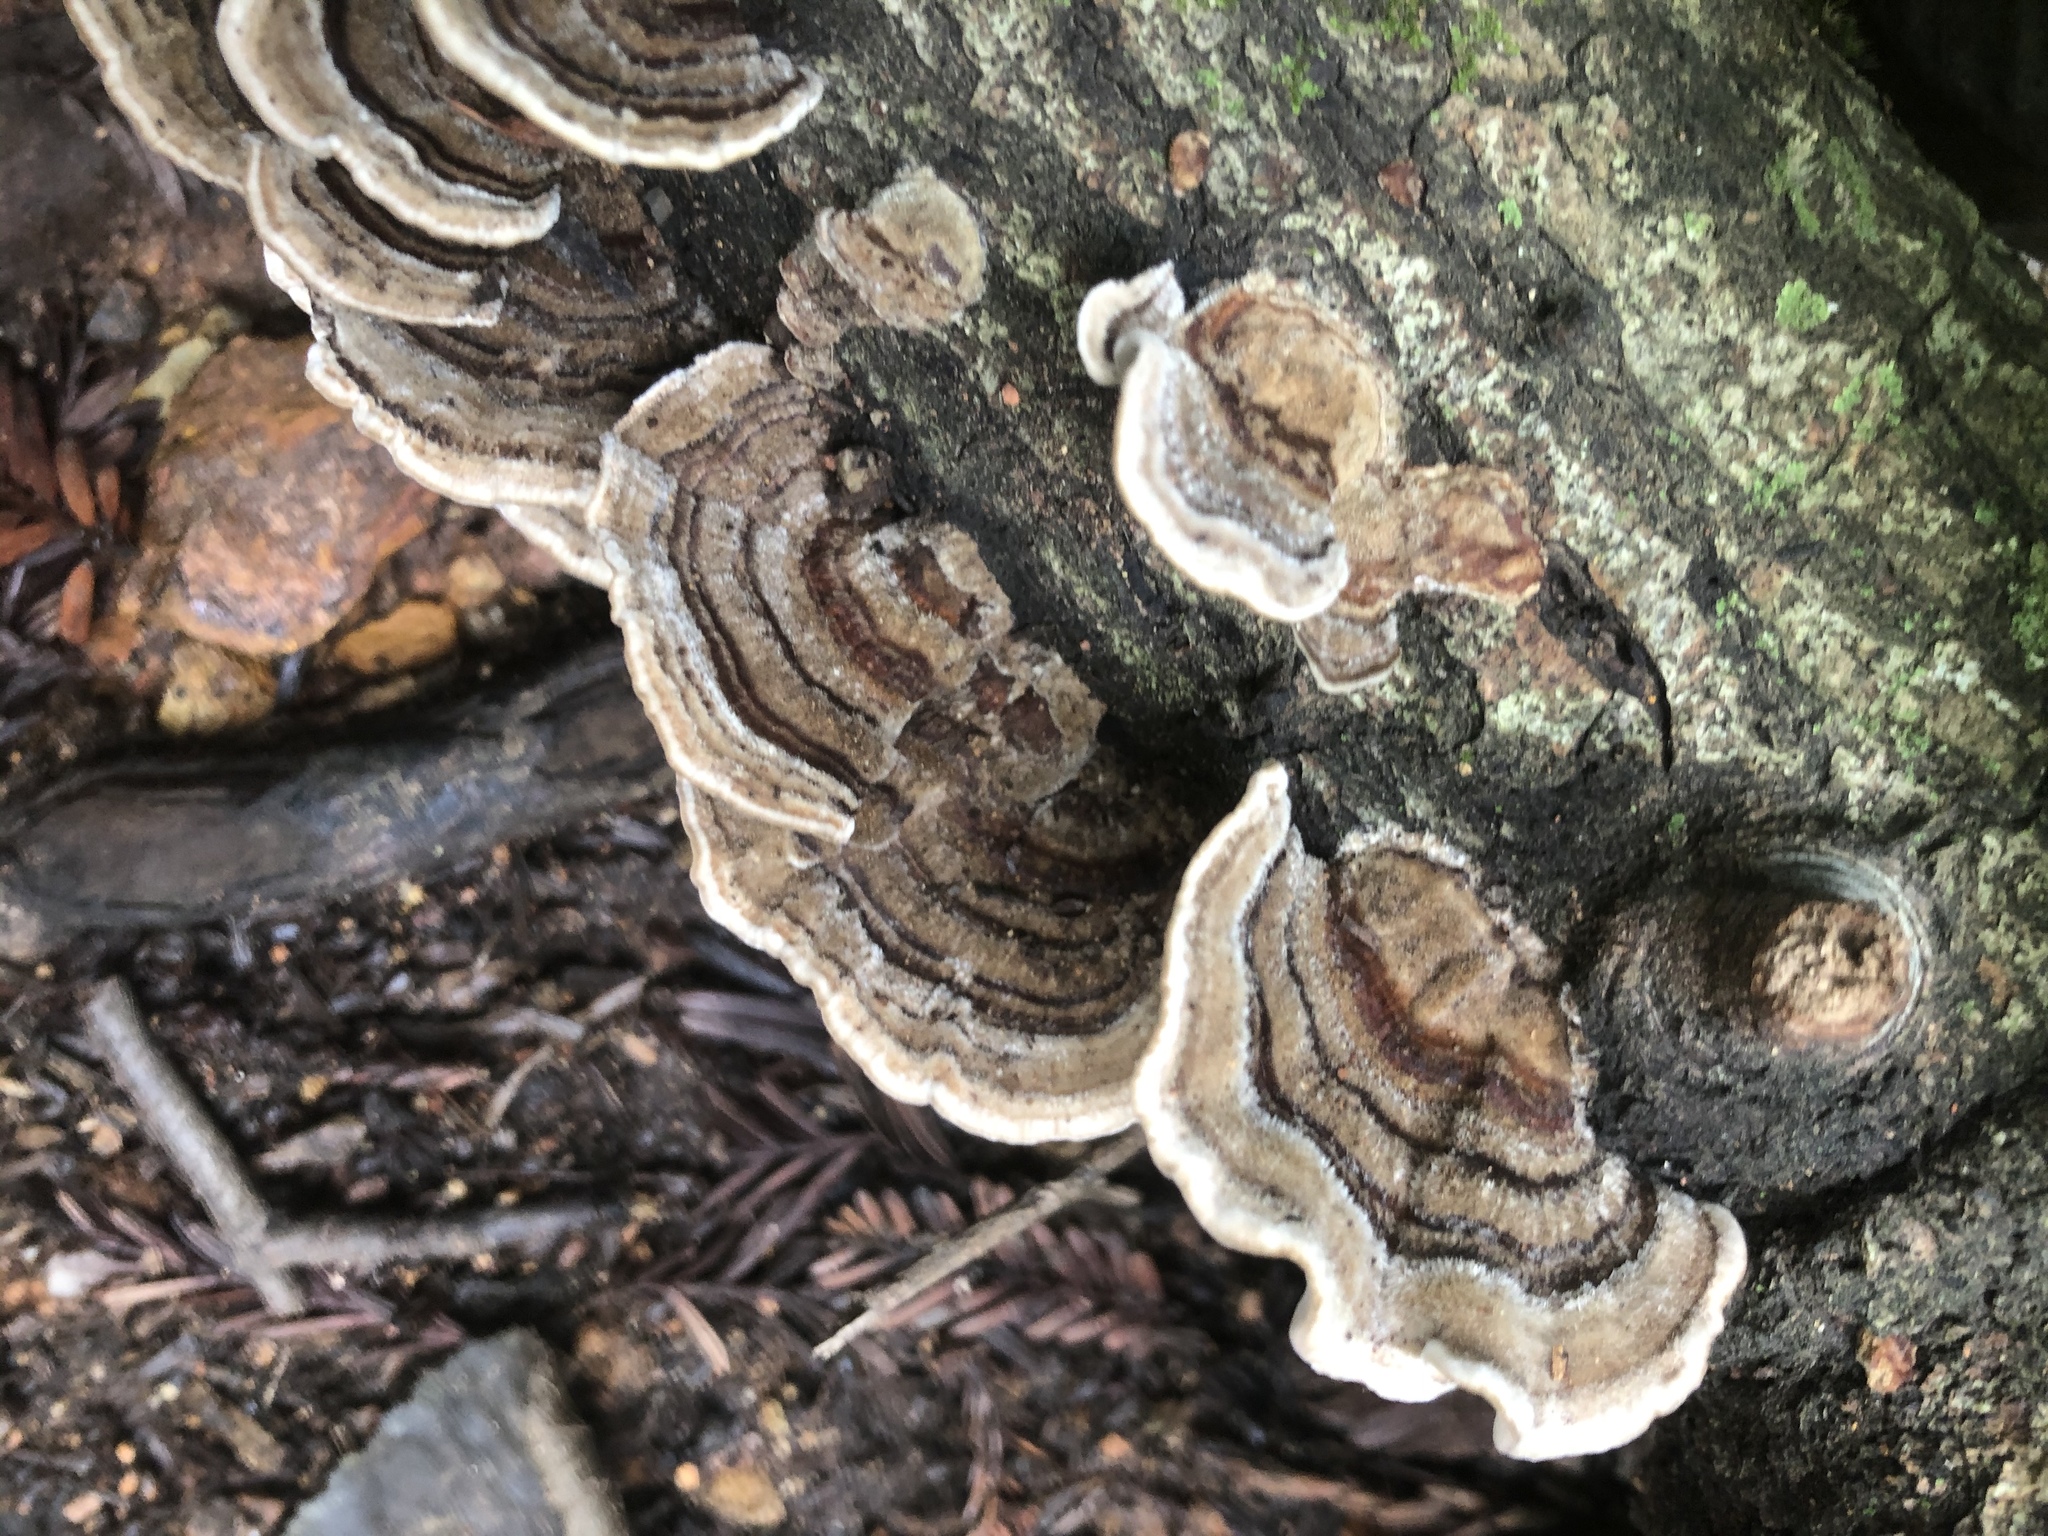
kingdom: Fungi
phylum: Basidiomycota
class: Agaricomycetes
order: Polyporales
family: Polyporaceae
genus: Trametes
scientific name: Trametes versicolor
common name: Turkeytail
